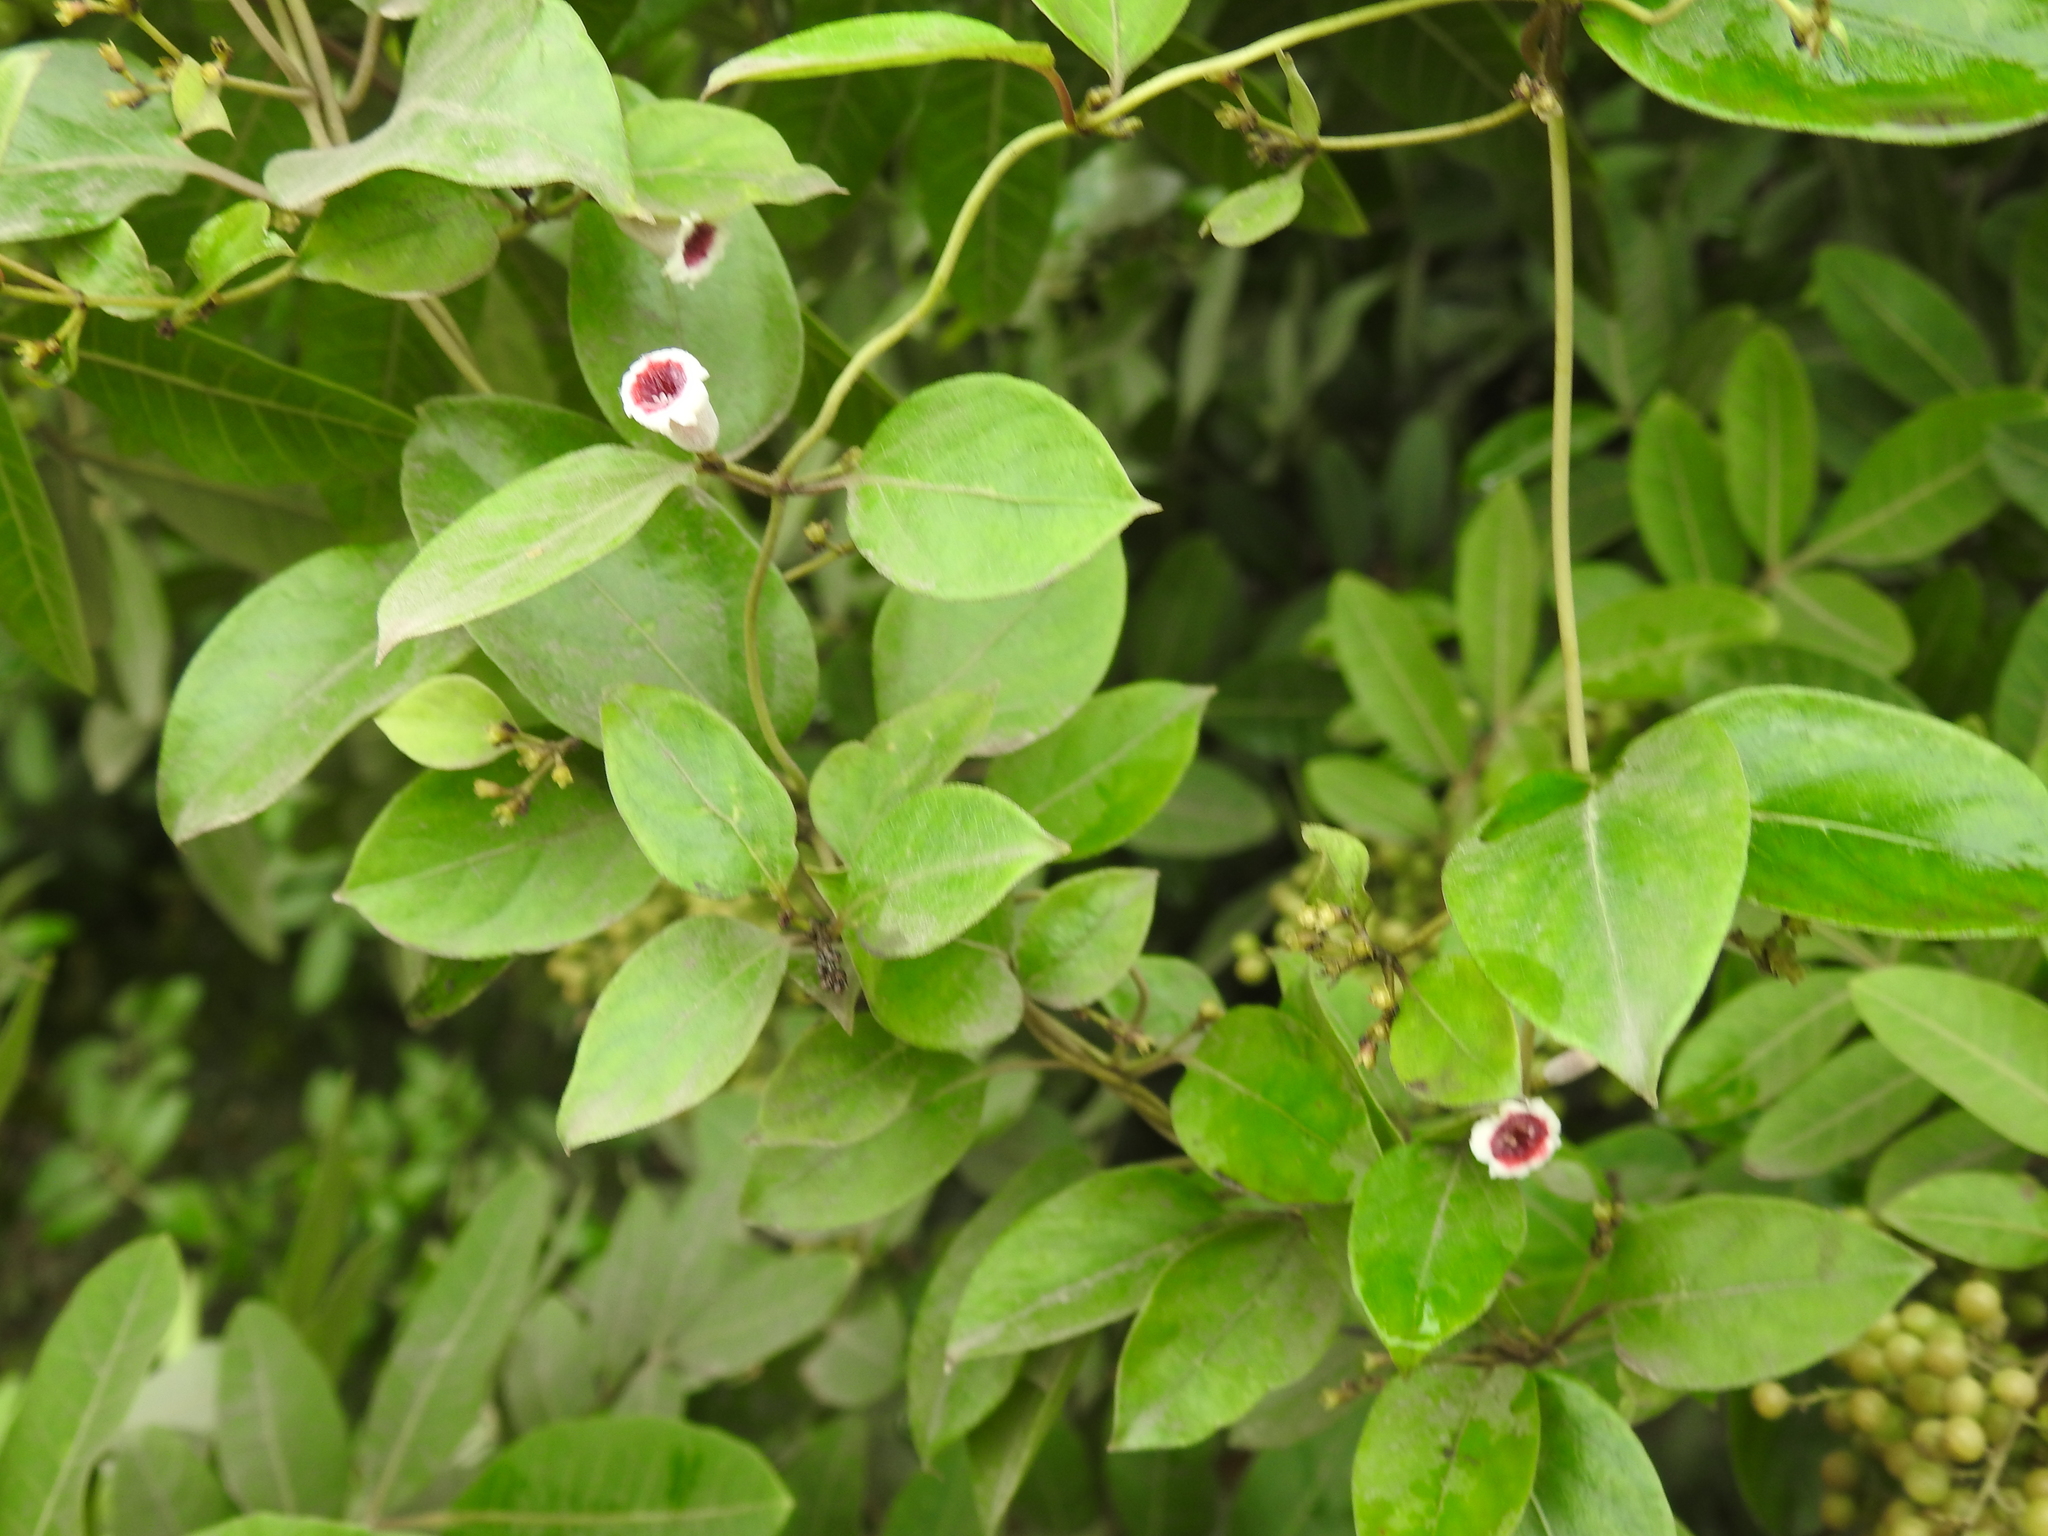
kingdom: Plantae
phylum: Tracheophyta
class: Magnoliopsida
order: Gentianales
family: Rubiaceae
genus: Paederia
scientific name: Paederia foetida
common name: Stinkvine
